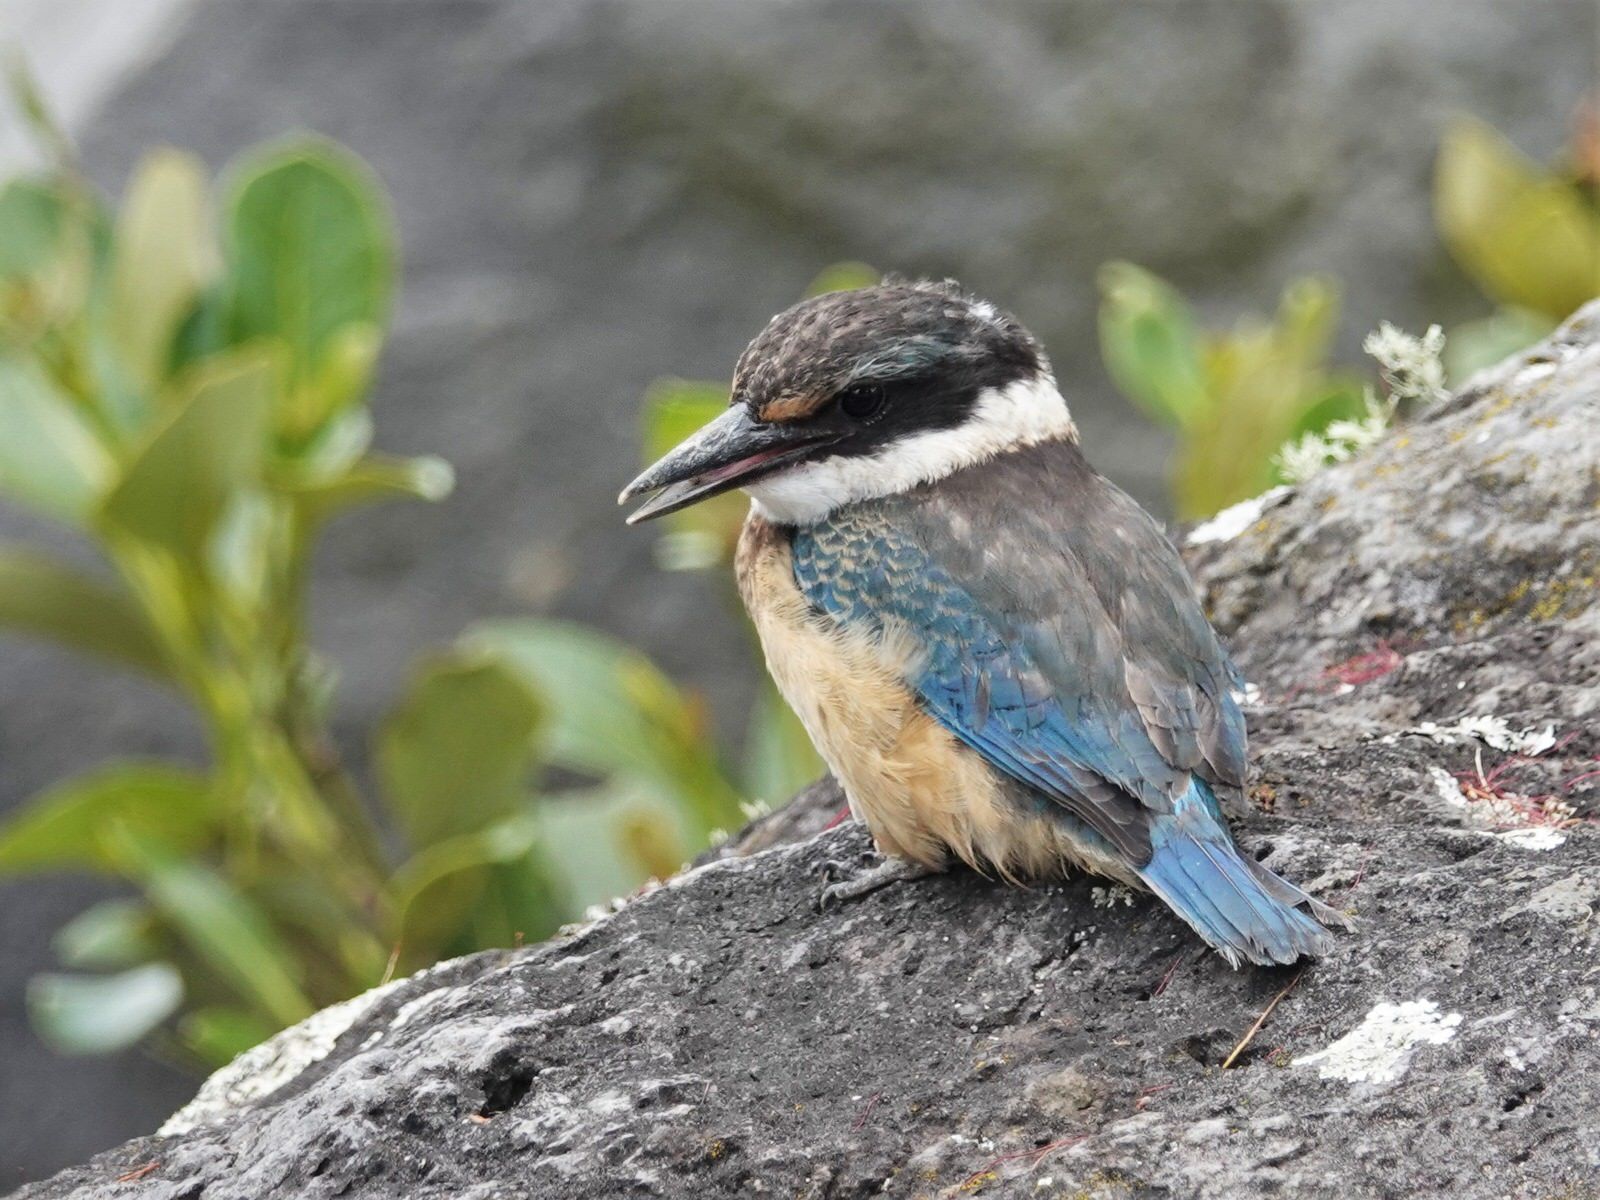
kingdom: Animalia
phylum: Chordata
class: Aves
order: Coraciiformes
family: Alcedinidae
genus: Todiramphus
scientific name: Todiramphus sanctus
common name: Sacred kingfisher
